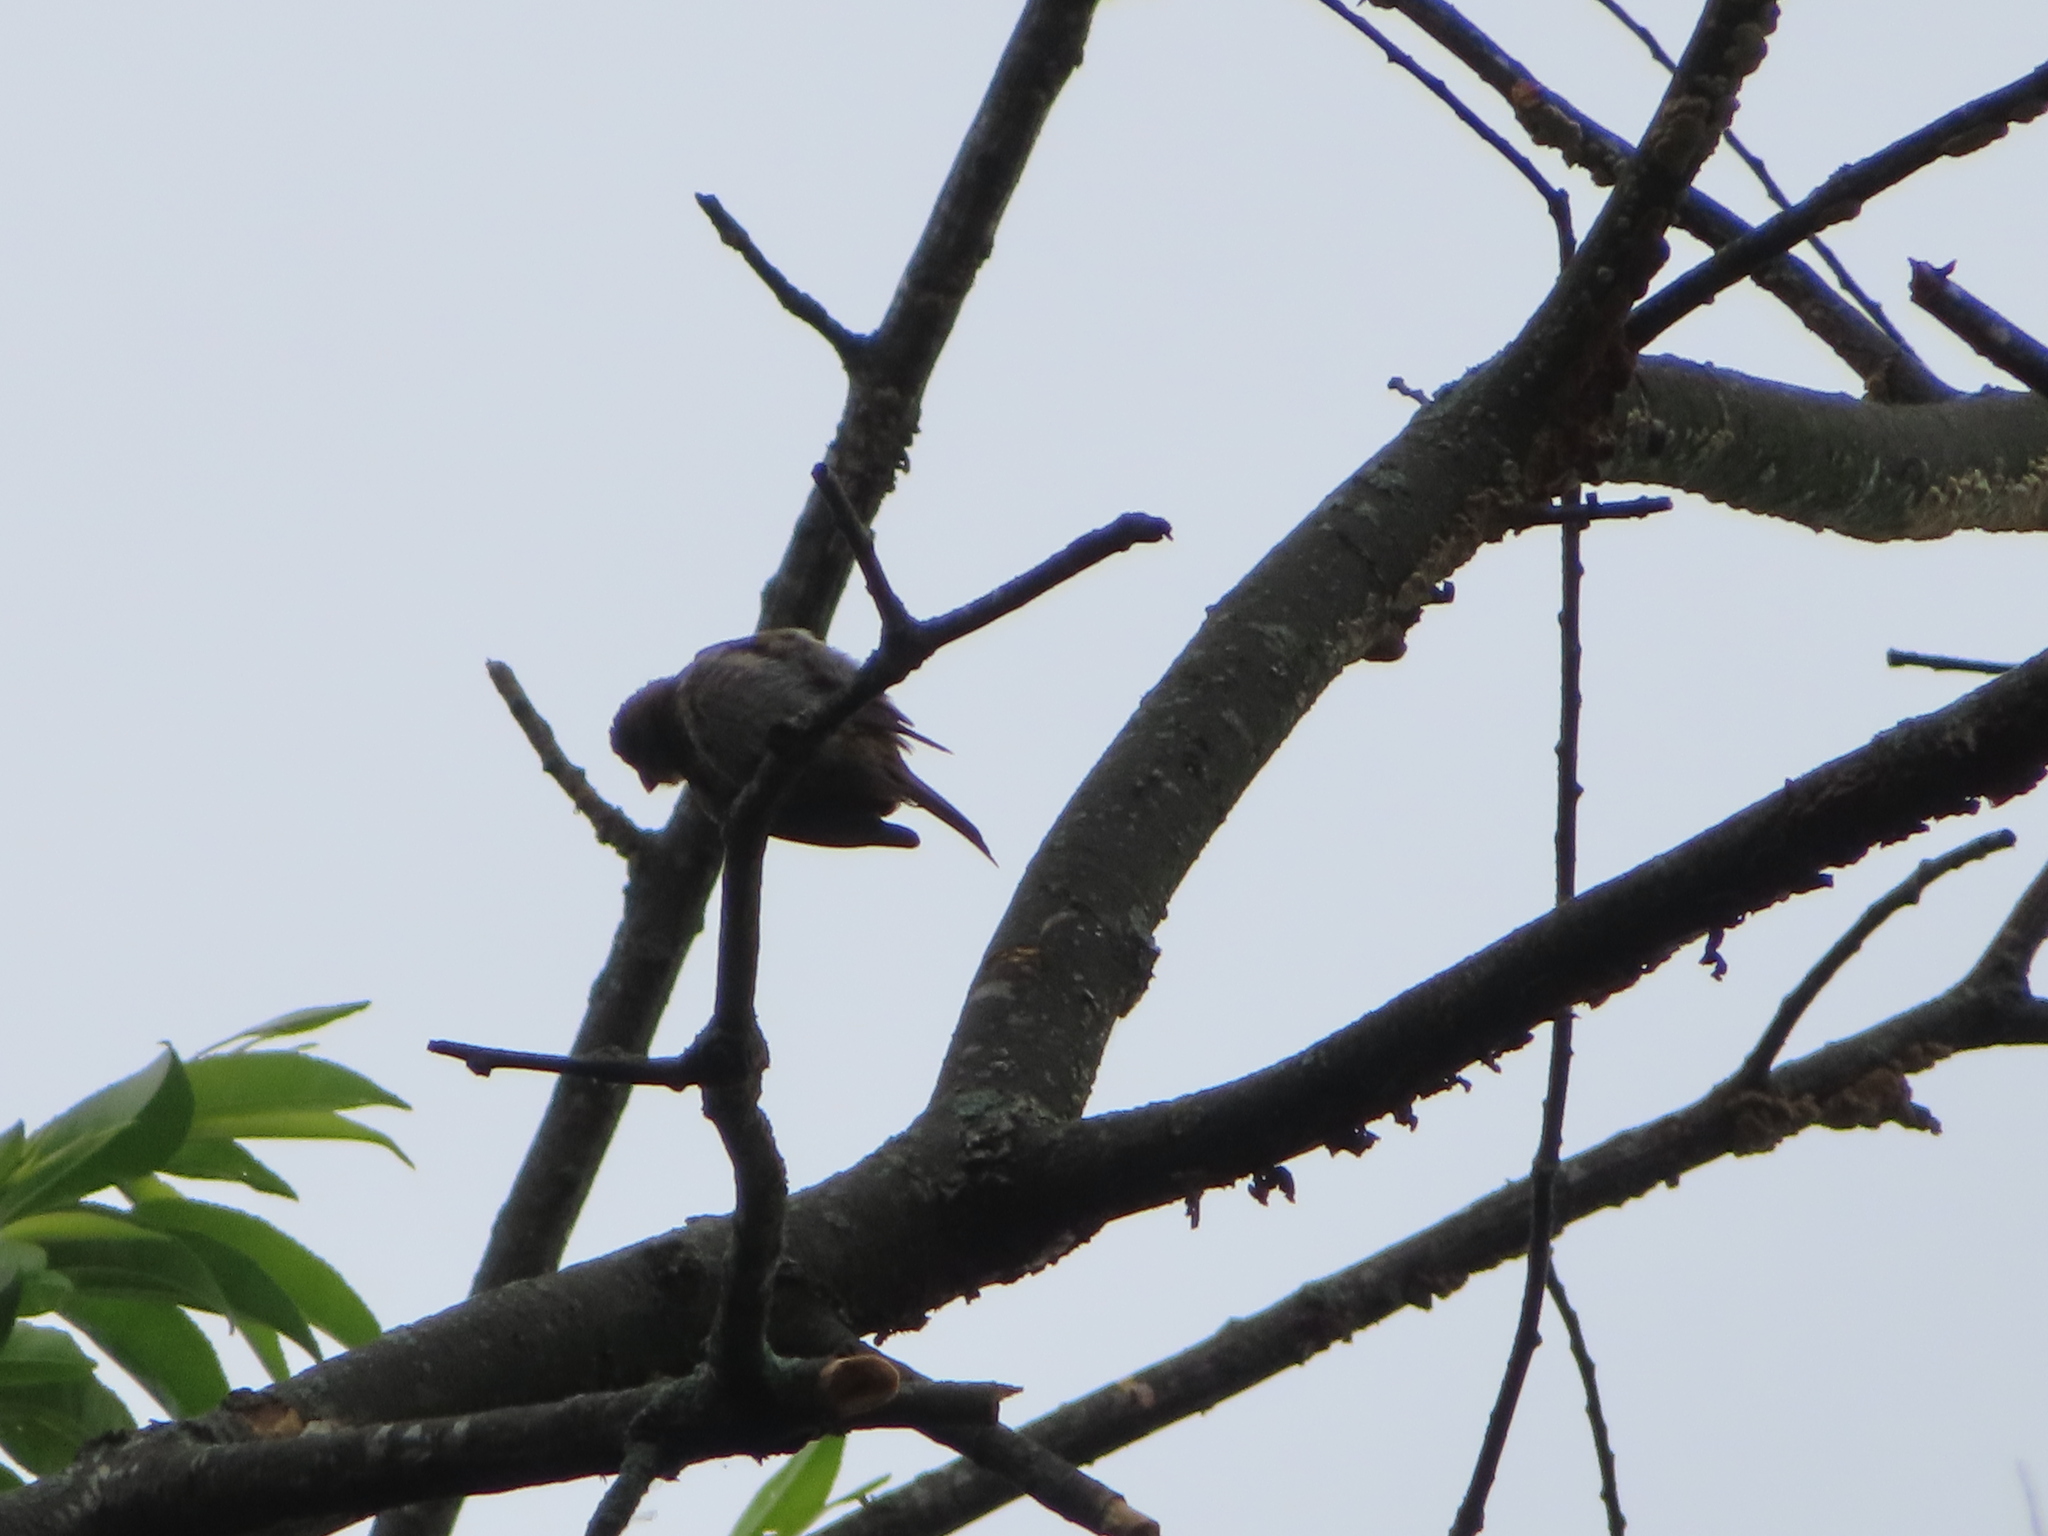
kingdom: Animalia
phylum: Chordata
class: Aves
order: Passeriformes
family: Fringillidae
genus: Haemorhous
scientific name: Haemorhous mexicanus
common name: House finch
